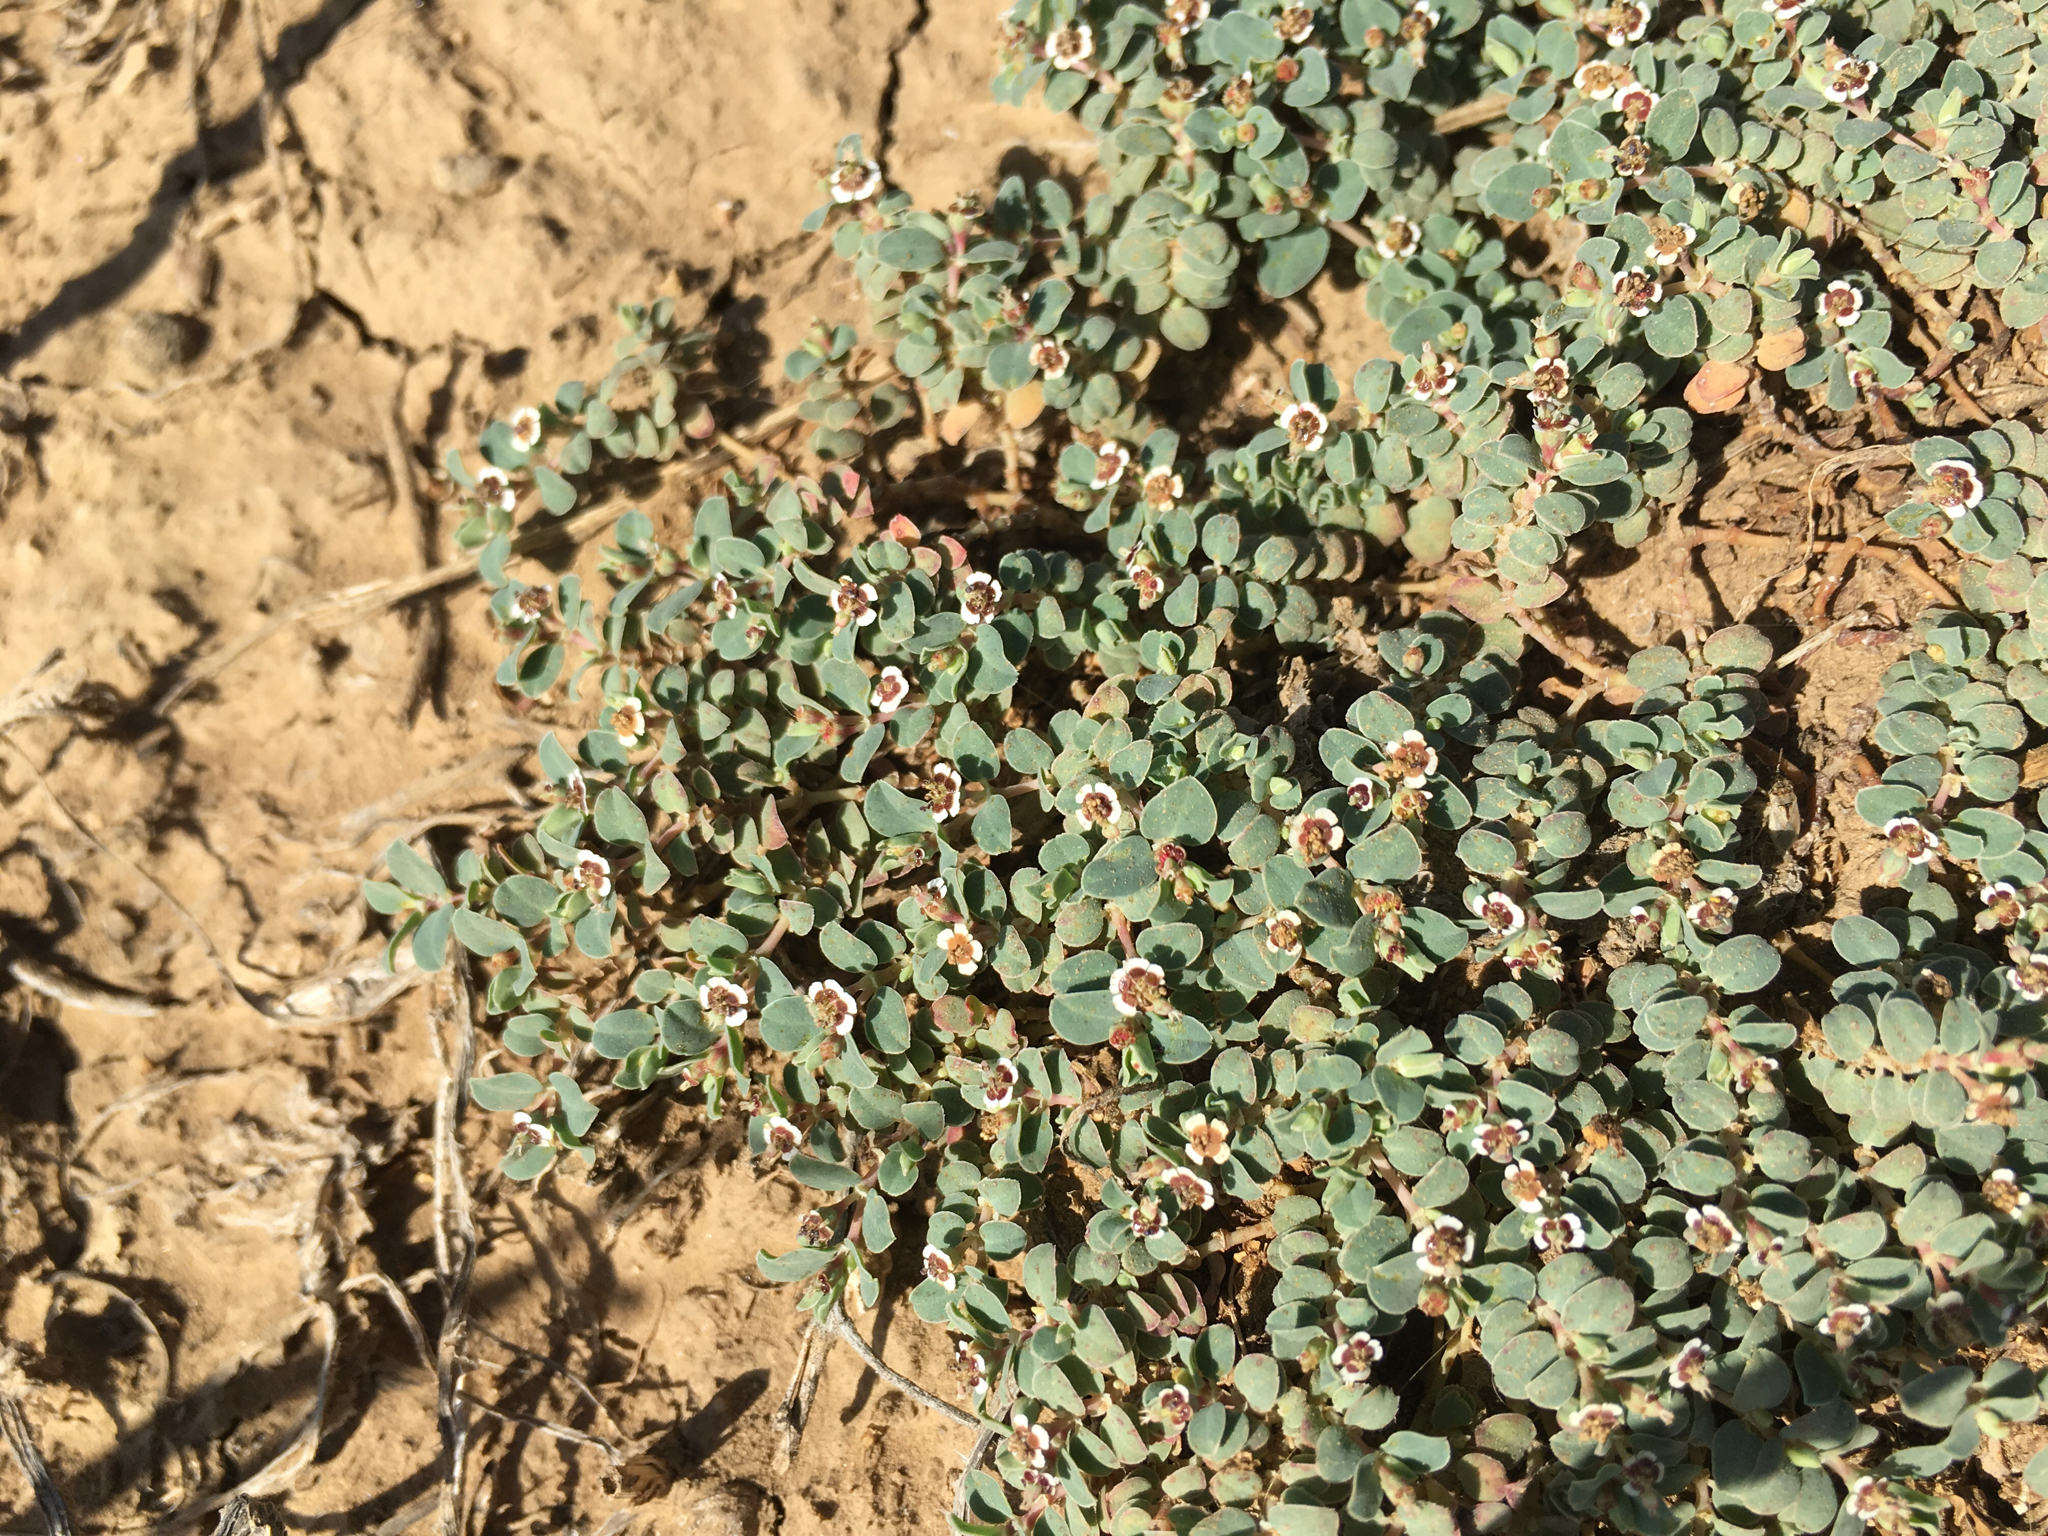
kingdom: Plantae
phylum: Tracheophyta
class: Magnoliopsida
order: Malpighiales
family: Euphorbiaceae
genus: Euphorbia
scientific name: Euphorbia albomarginata
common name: Whitemargin sandmat
